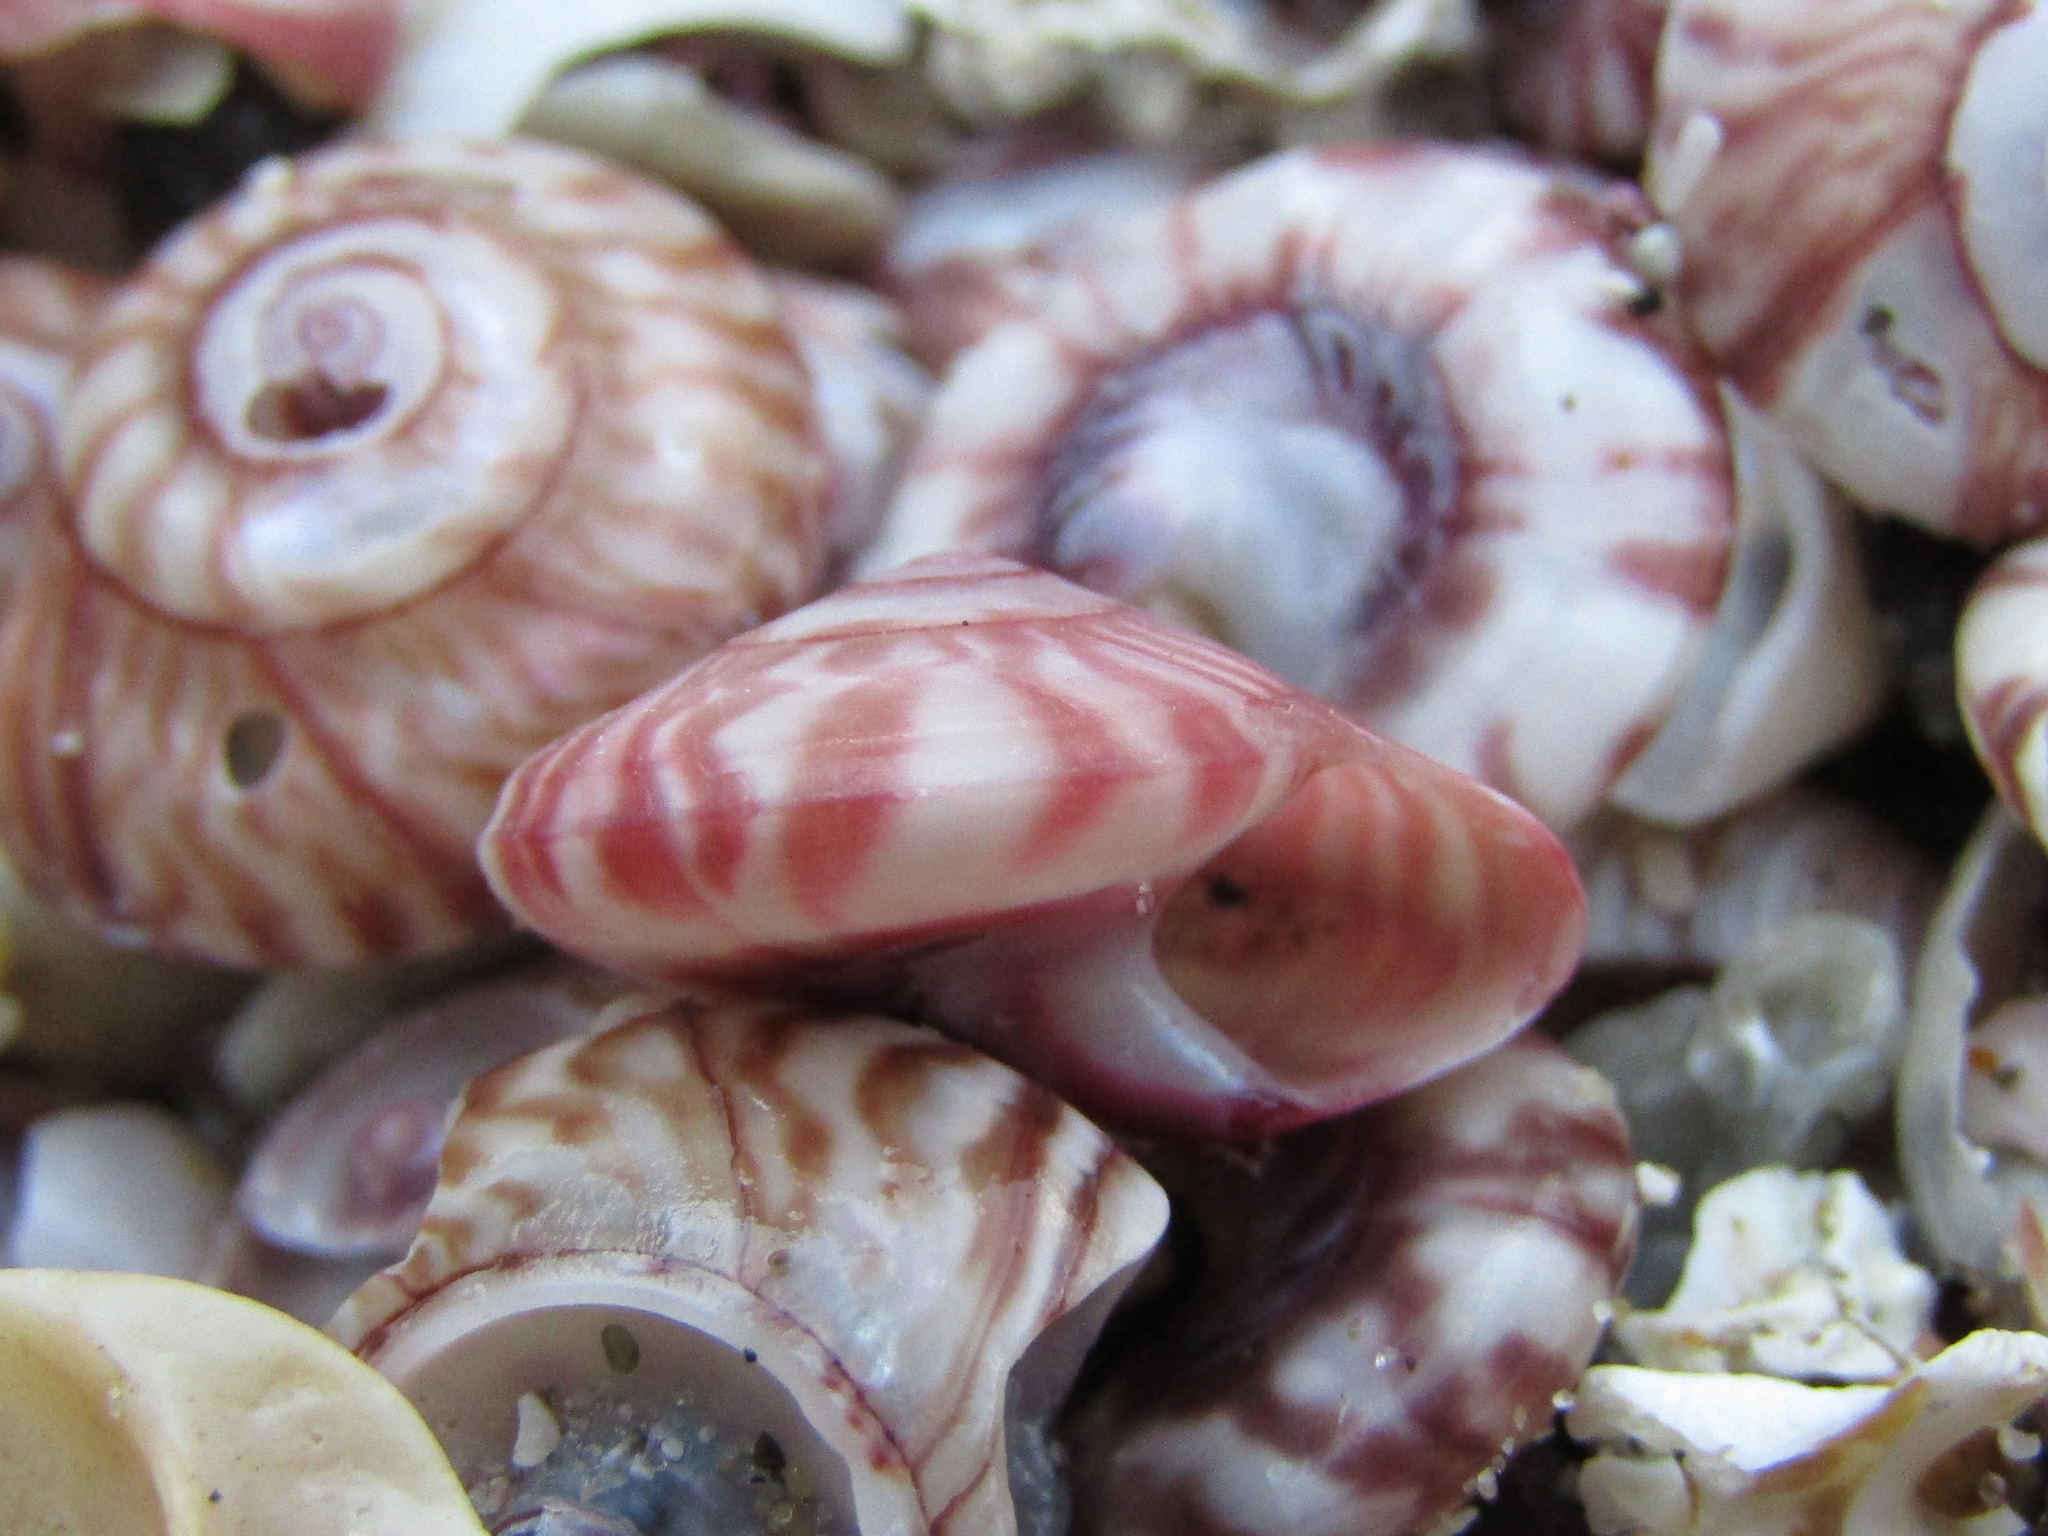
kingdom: Animalia
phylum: Mollusca
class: Gastropoda
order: Trochida
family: Trochidae
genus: Zethalia
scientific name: Zethalia zelandica
